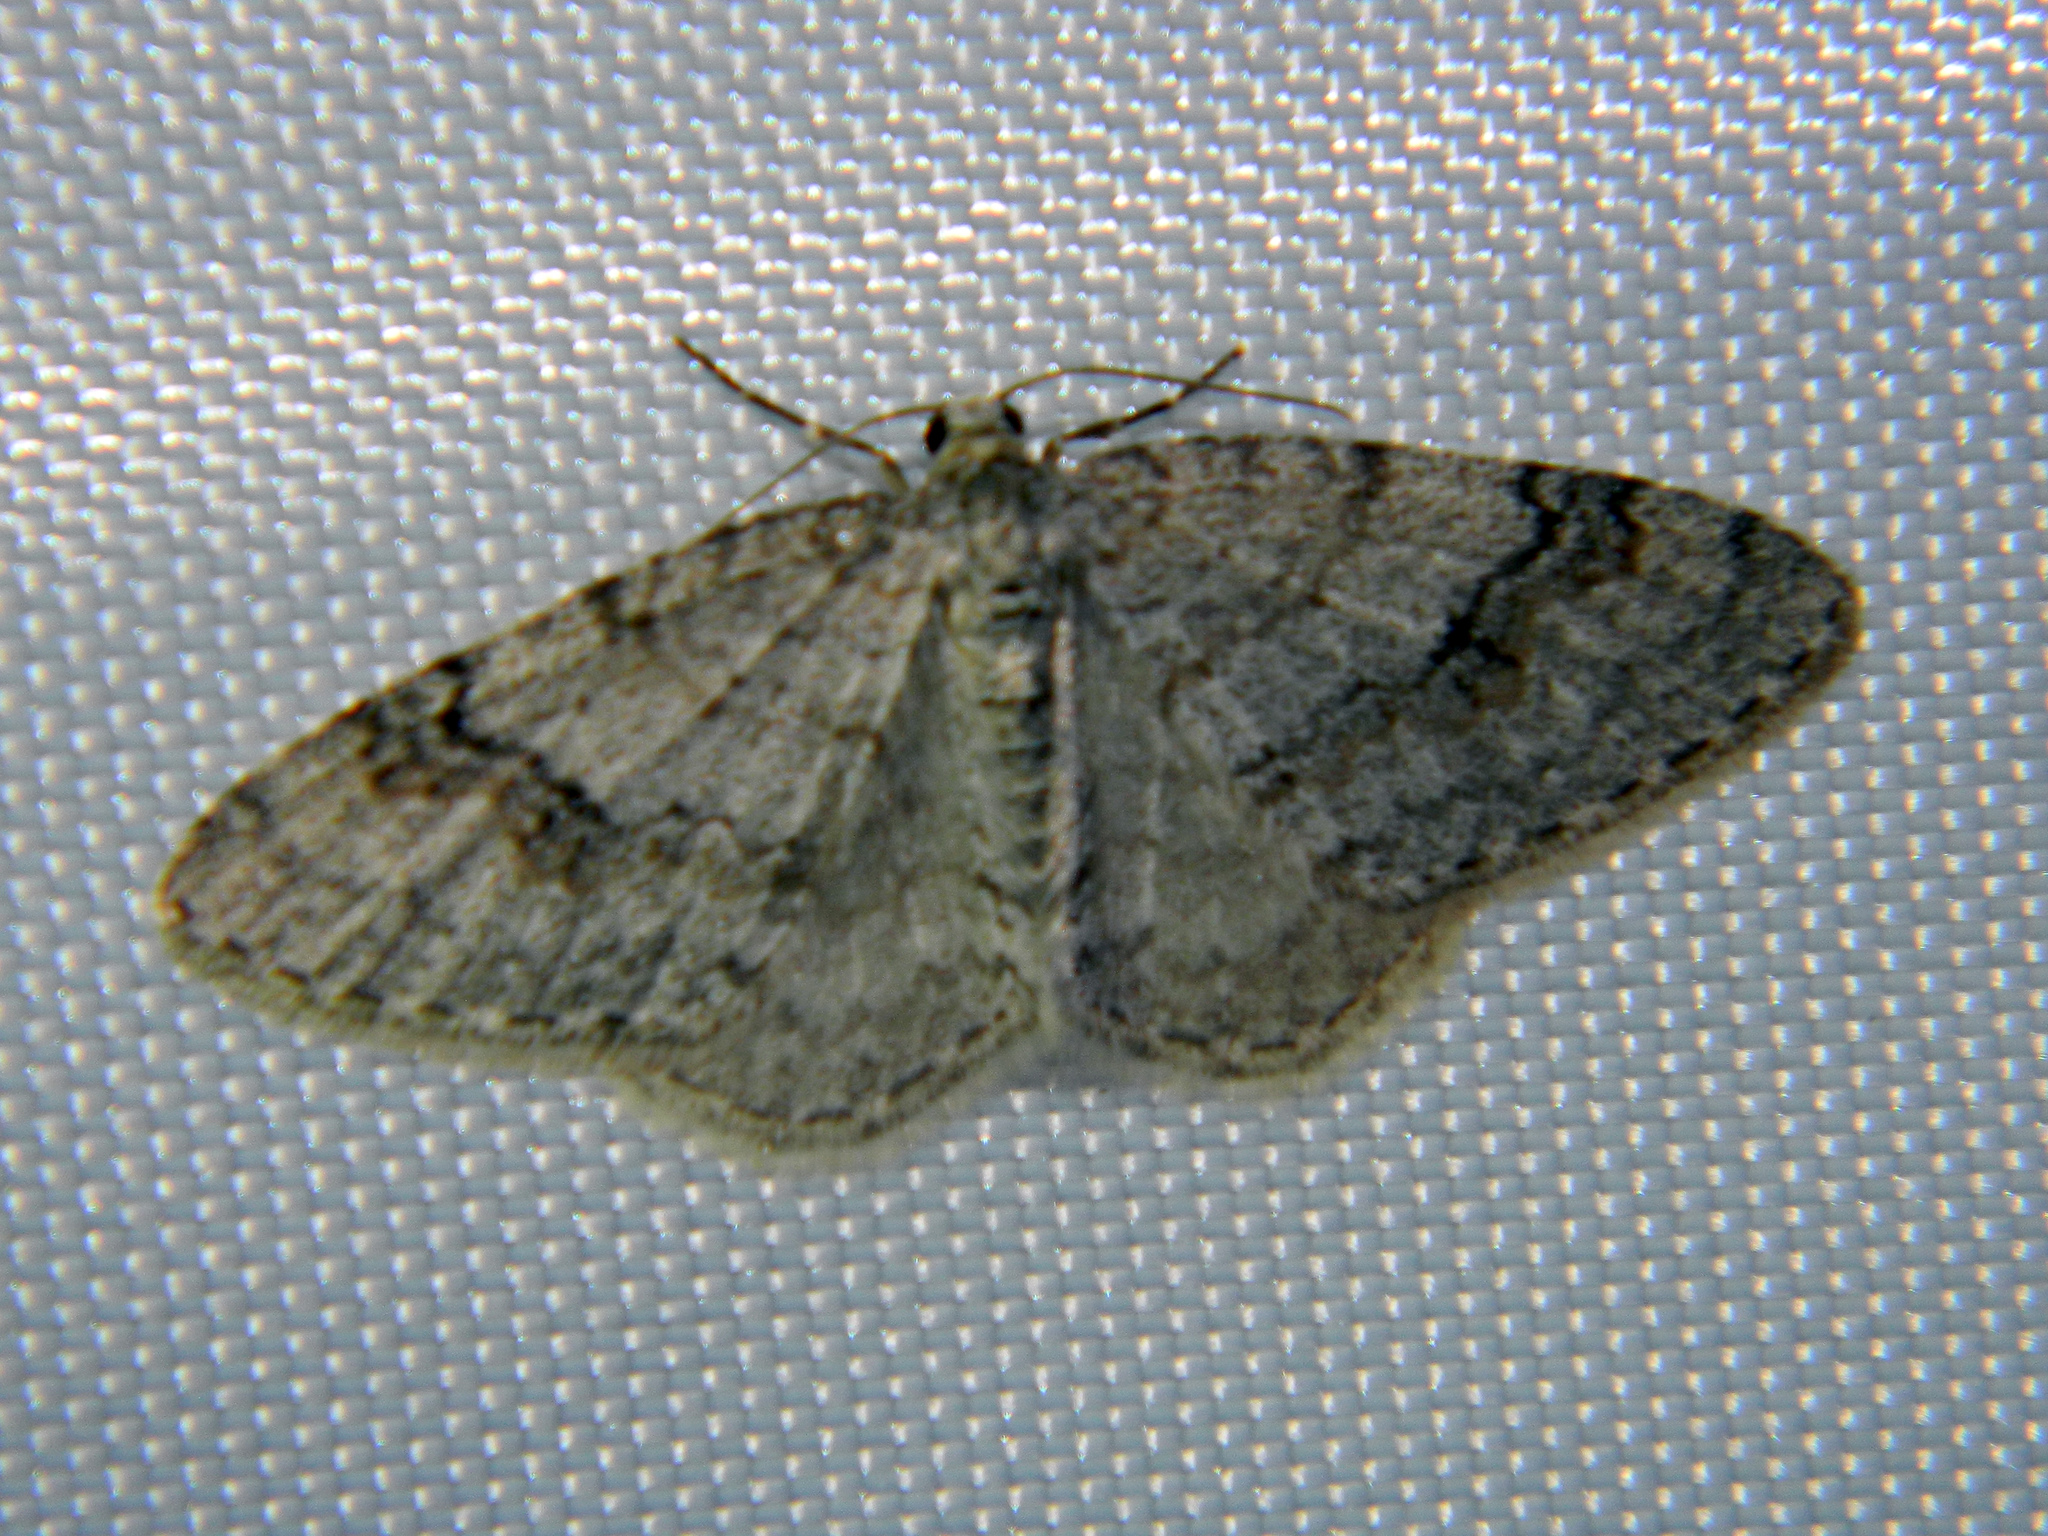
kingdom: Animalia
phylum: Arthropoda
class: Insecta
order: Lepidoptera
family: Geometridae
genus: Venusia
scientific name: Venusia comptaria
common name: Brown-shaded carpet
